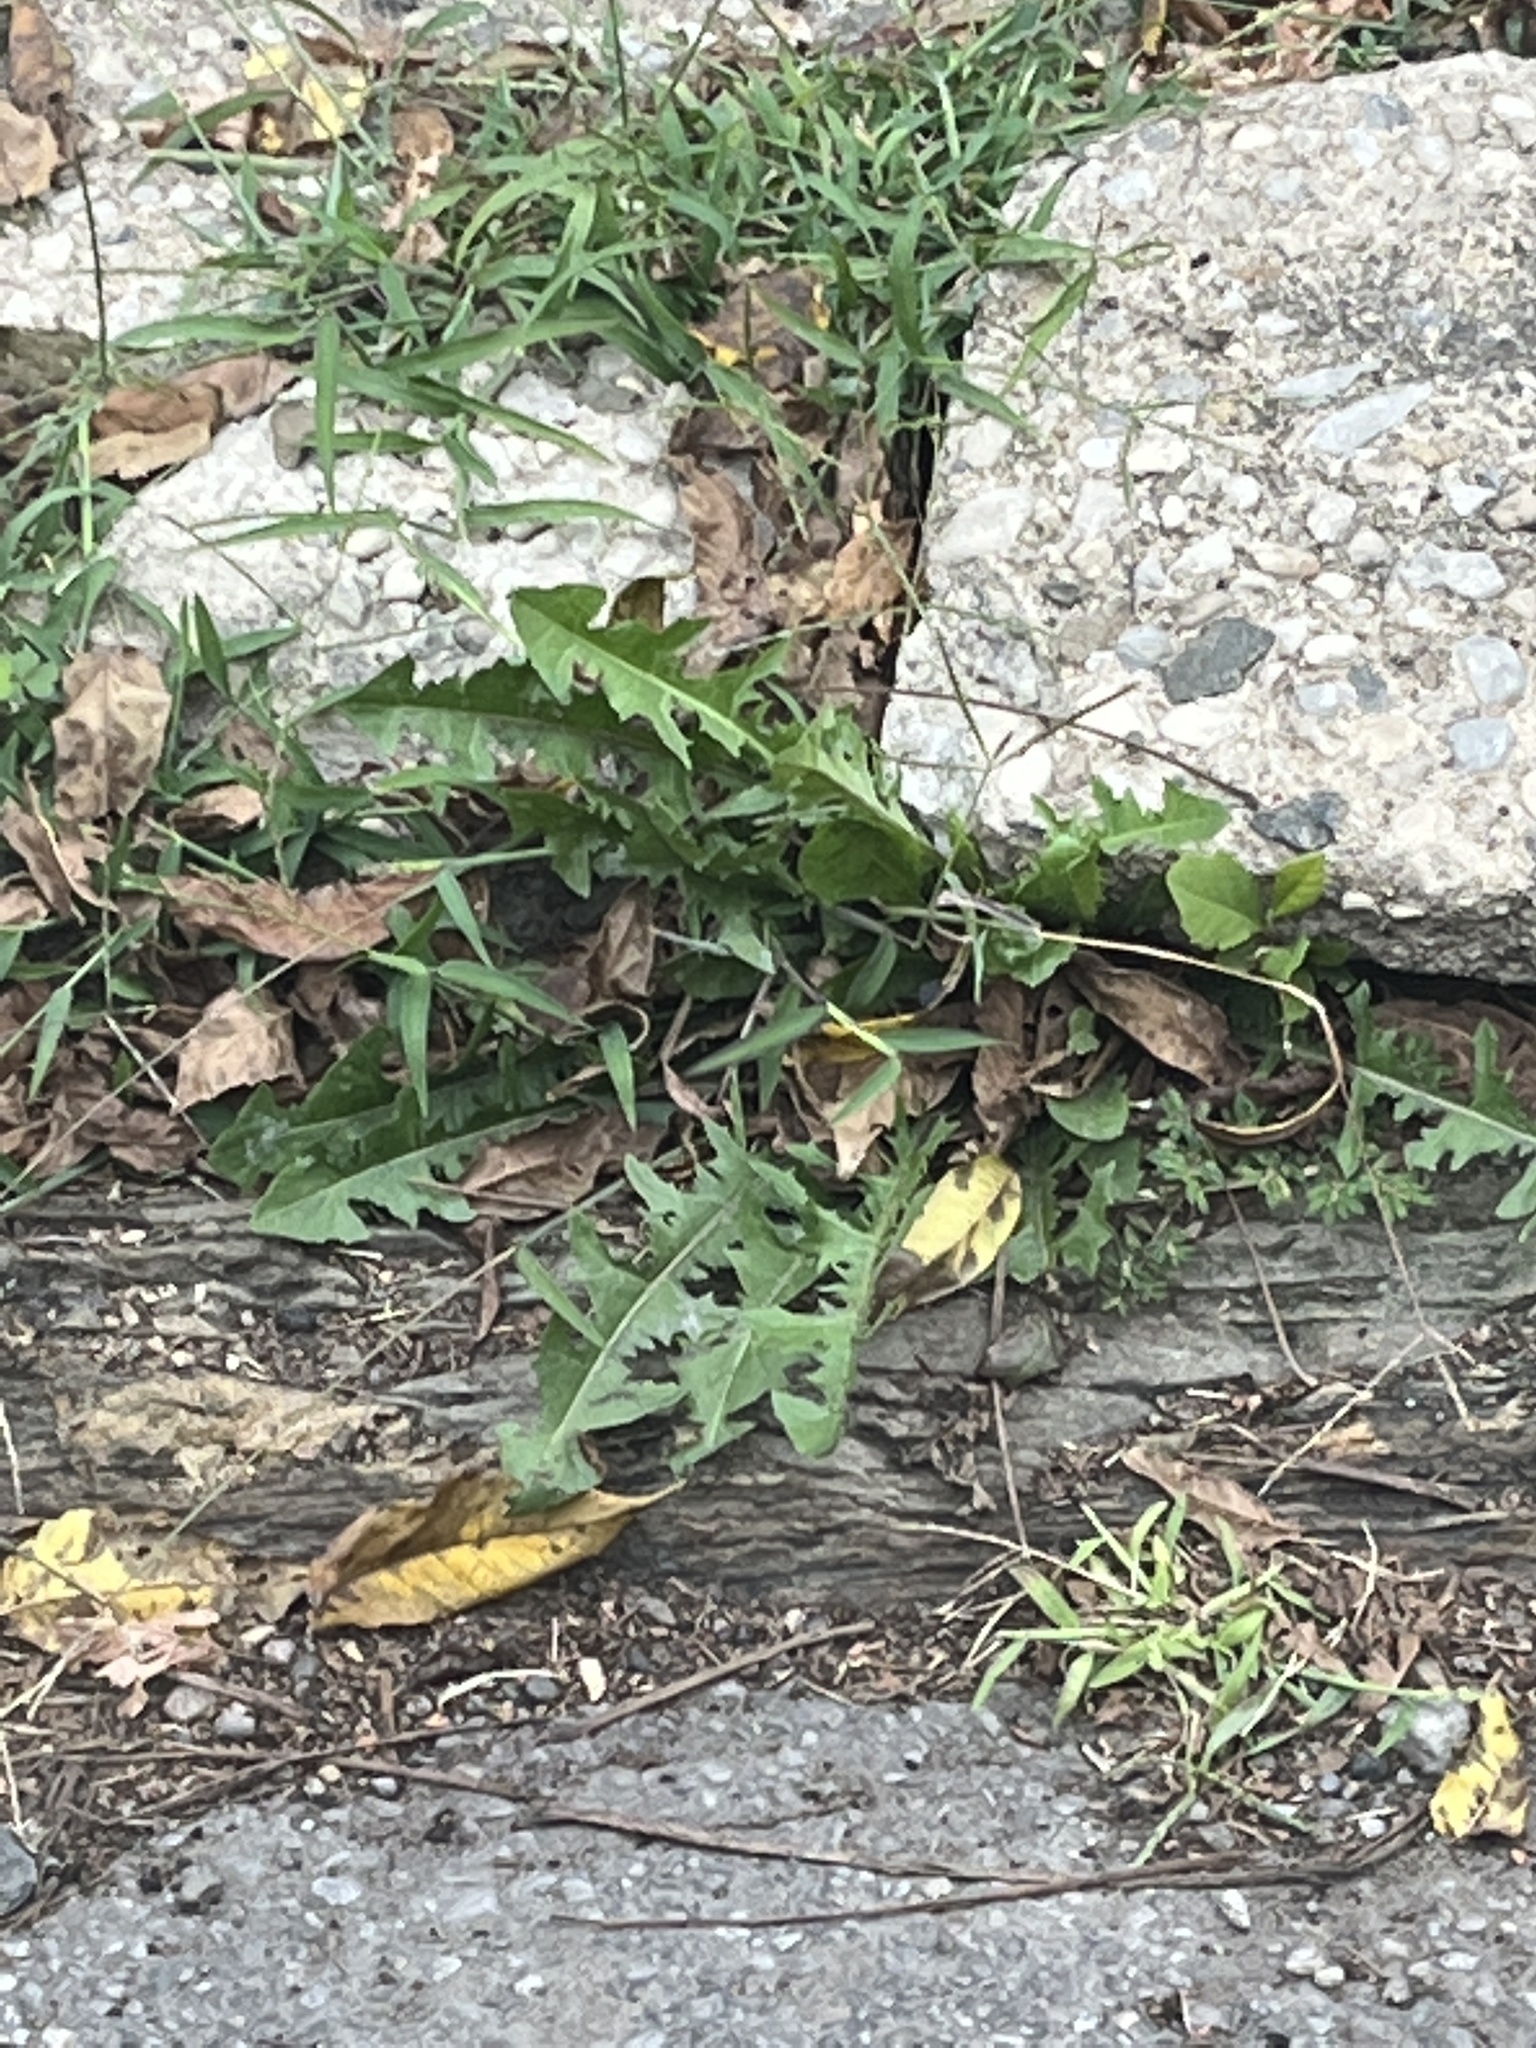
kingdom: Plantae
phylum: Tracheophyta
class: Magnoliopsida
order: Asterales
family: Asteraceae
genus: Taraxacum
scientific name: Taraxacum officinale
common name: Common dandelion
